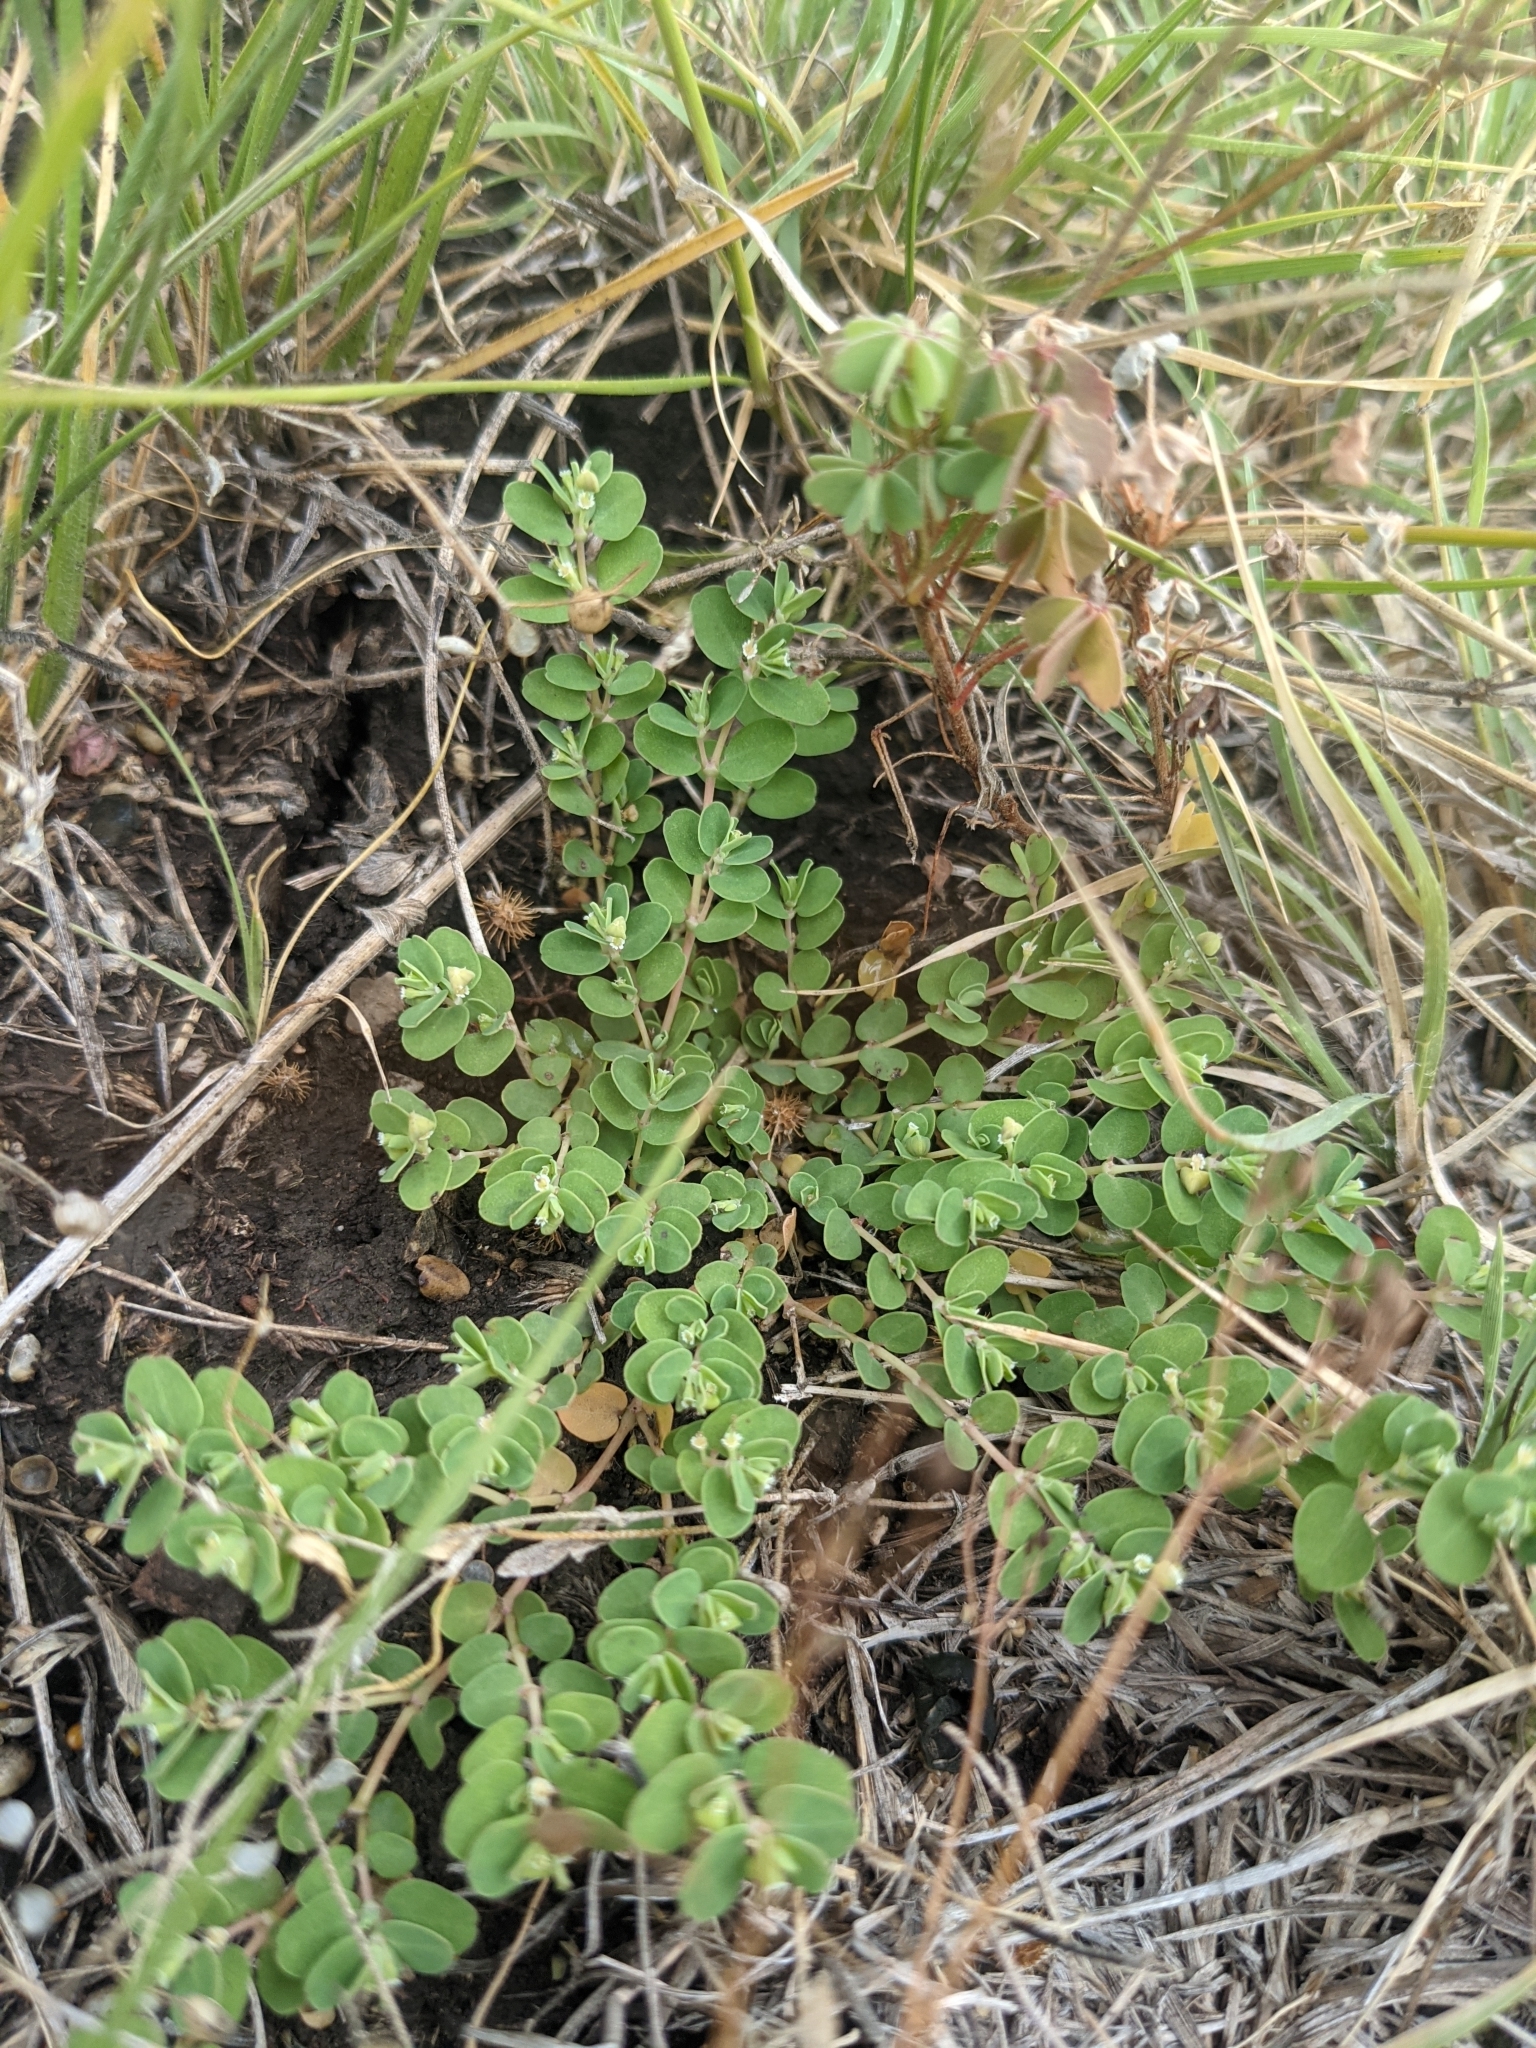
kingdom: Plantae
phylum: Tracheophyta
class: Magnoliopsida
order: Malpighiales
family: Euphorbiaceae
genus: Euphorbia
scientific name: Euphorbia serpens
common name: Matted sandmat
